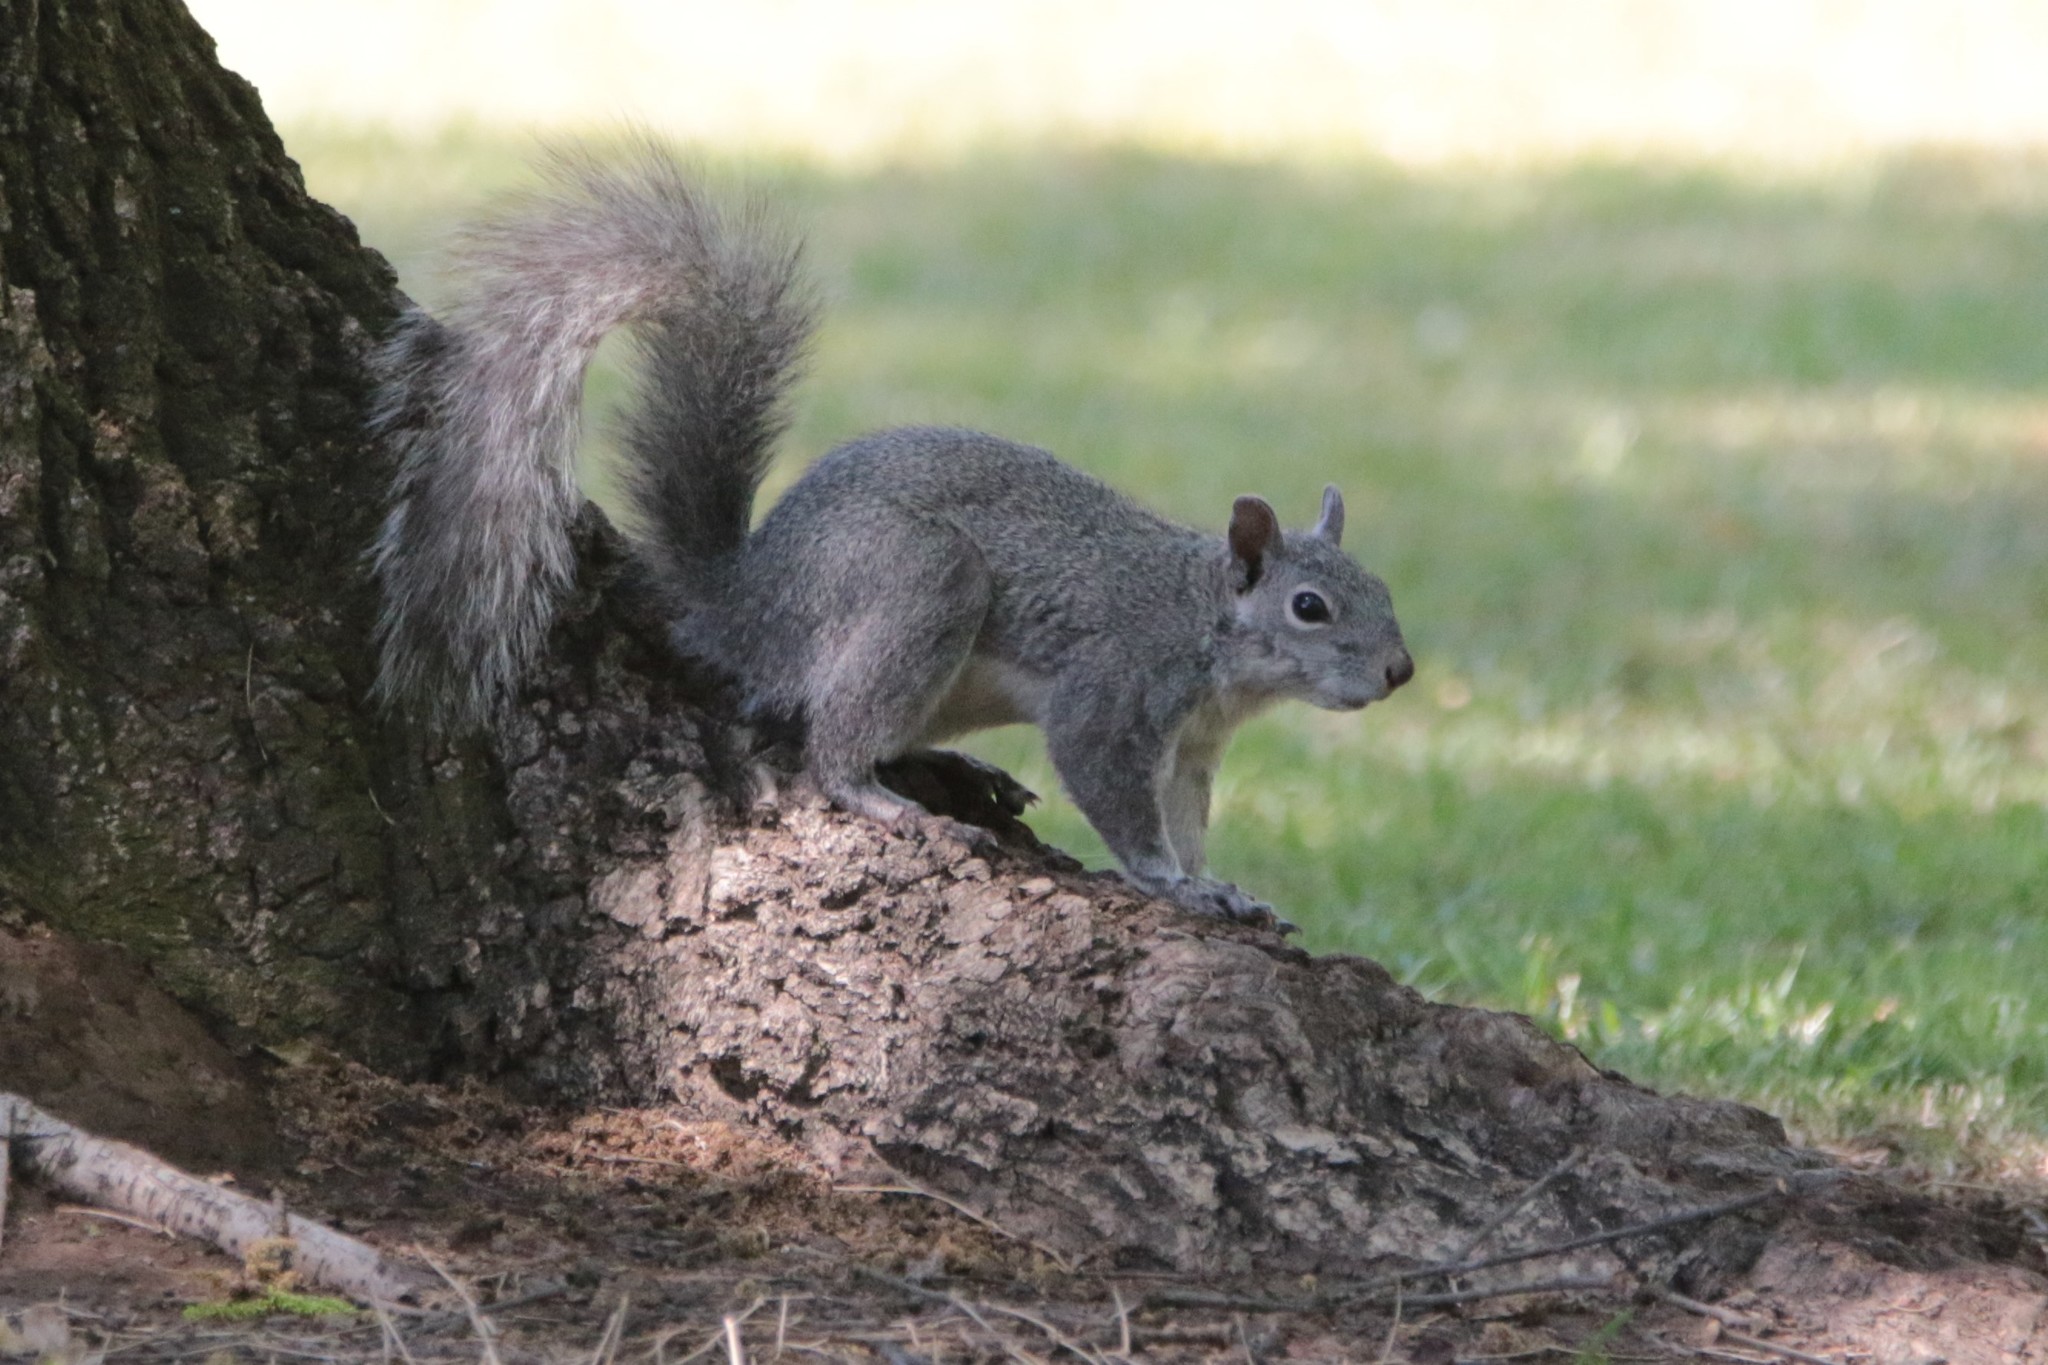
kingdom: Animalia
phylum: Chordata
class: Mammalia
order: Rodentia
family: Sciuridae
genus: Sciurus
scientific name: Sciurus griseus
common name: Western gray squirrel
